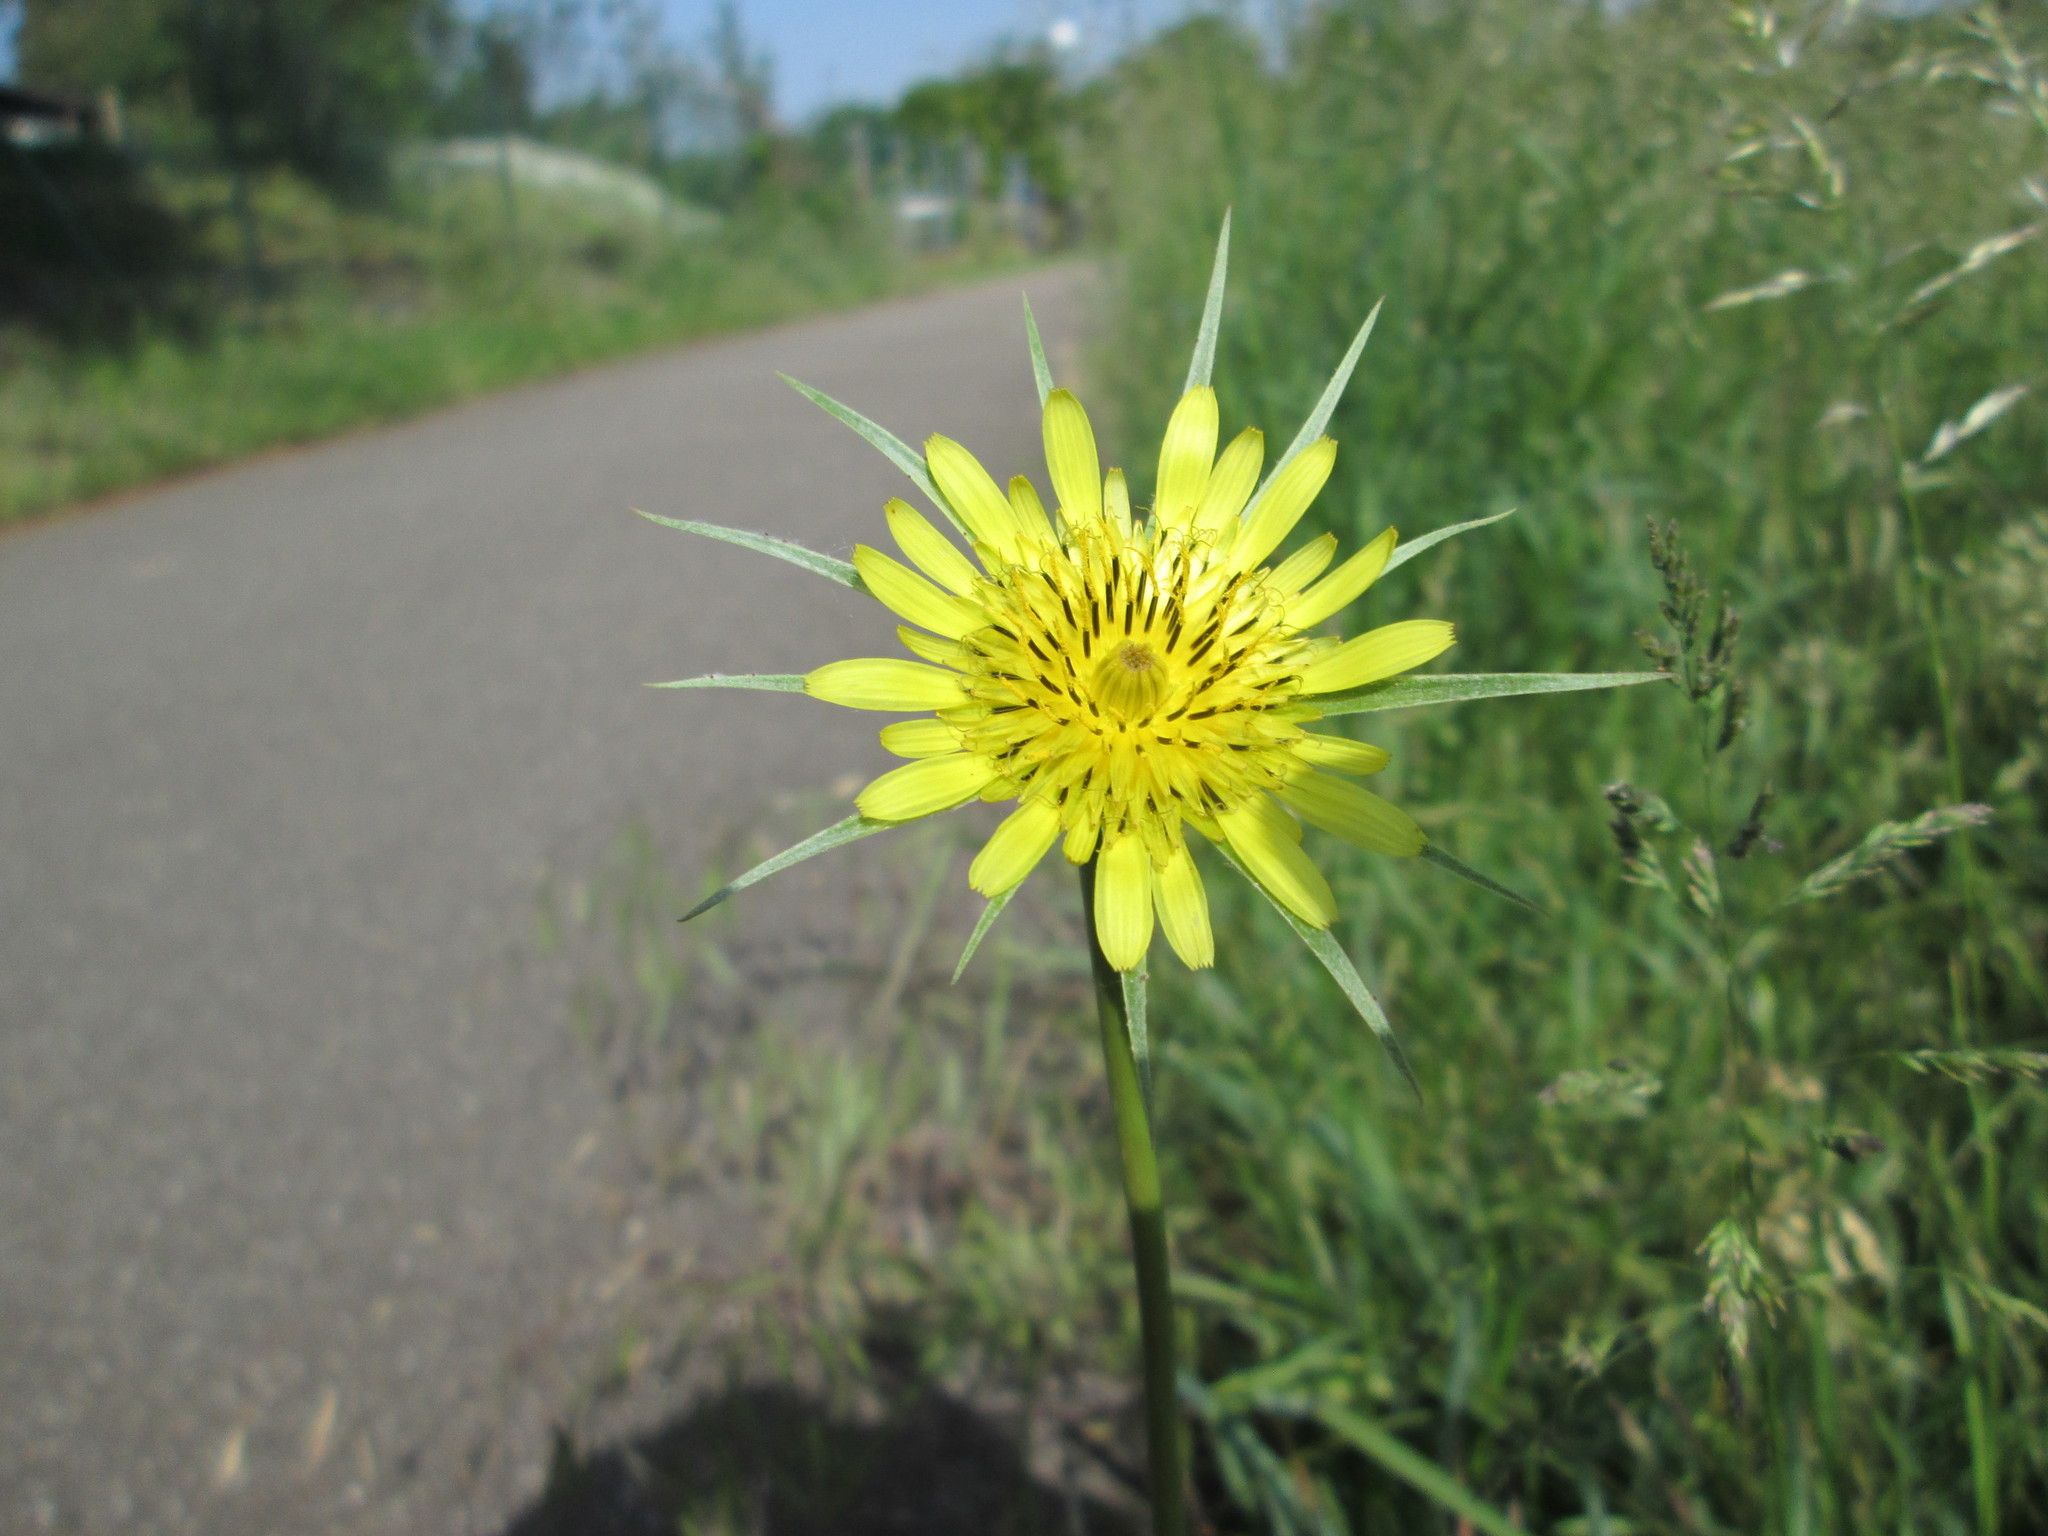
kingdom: Plantae
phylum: Tracheophyta
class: Magnoliopsida
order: Asterales
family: Asteraceae
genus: Tragopogon
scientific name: Tragopogon dubius
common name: Yellow salsify
